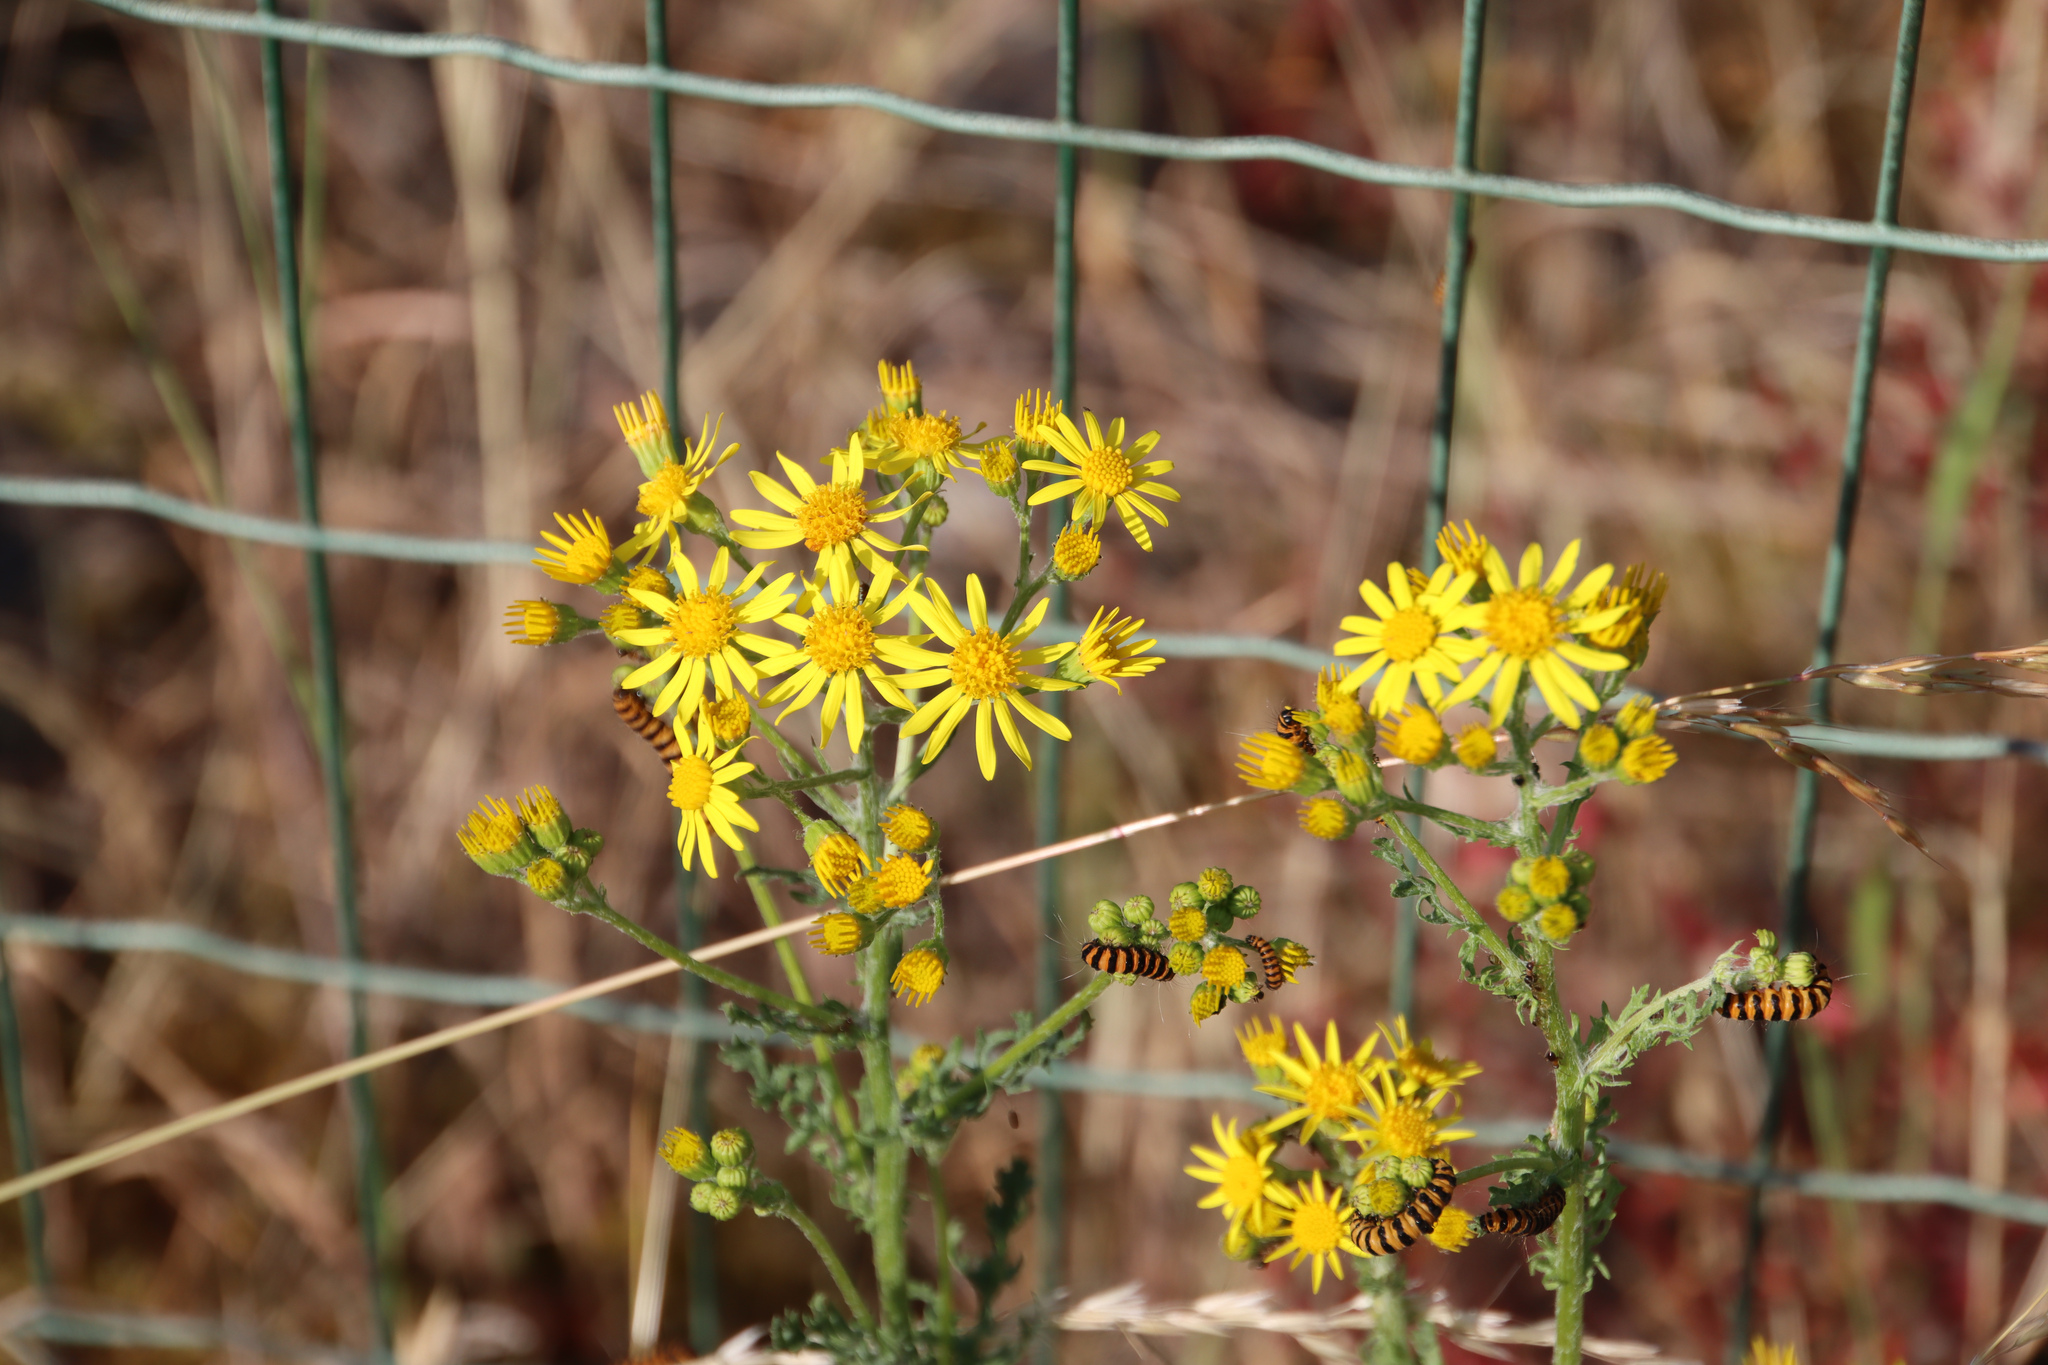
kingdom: Plantae
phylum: Tracheophyta
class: Magnoliopsida
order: Asterales
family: Asteraceae
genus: Jacobaea
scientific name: Jacobaea vulgaris
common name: Stinking willie
